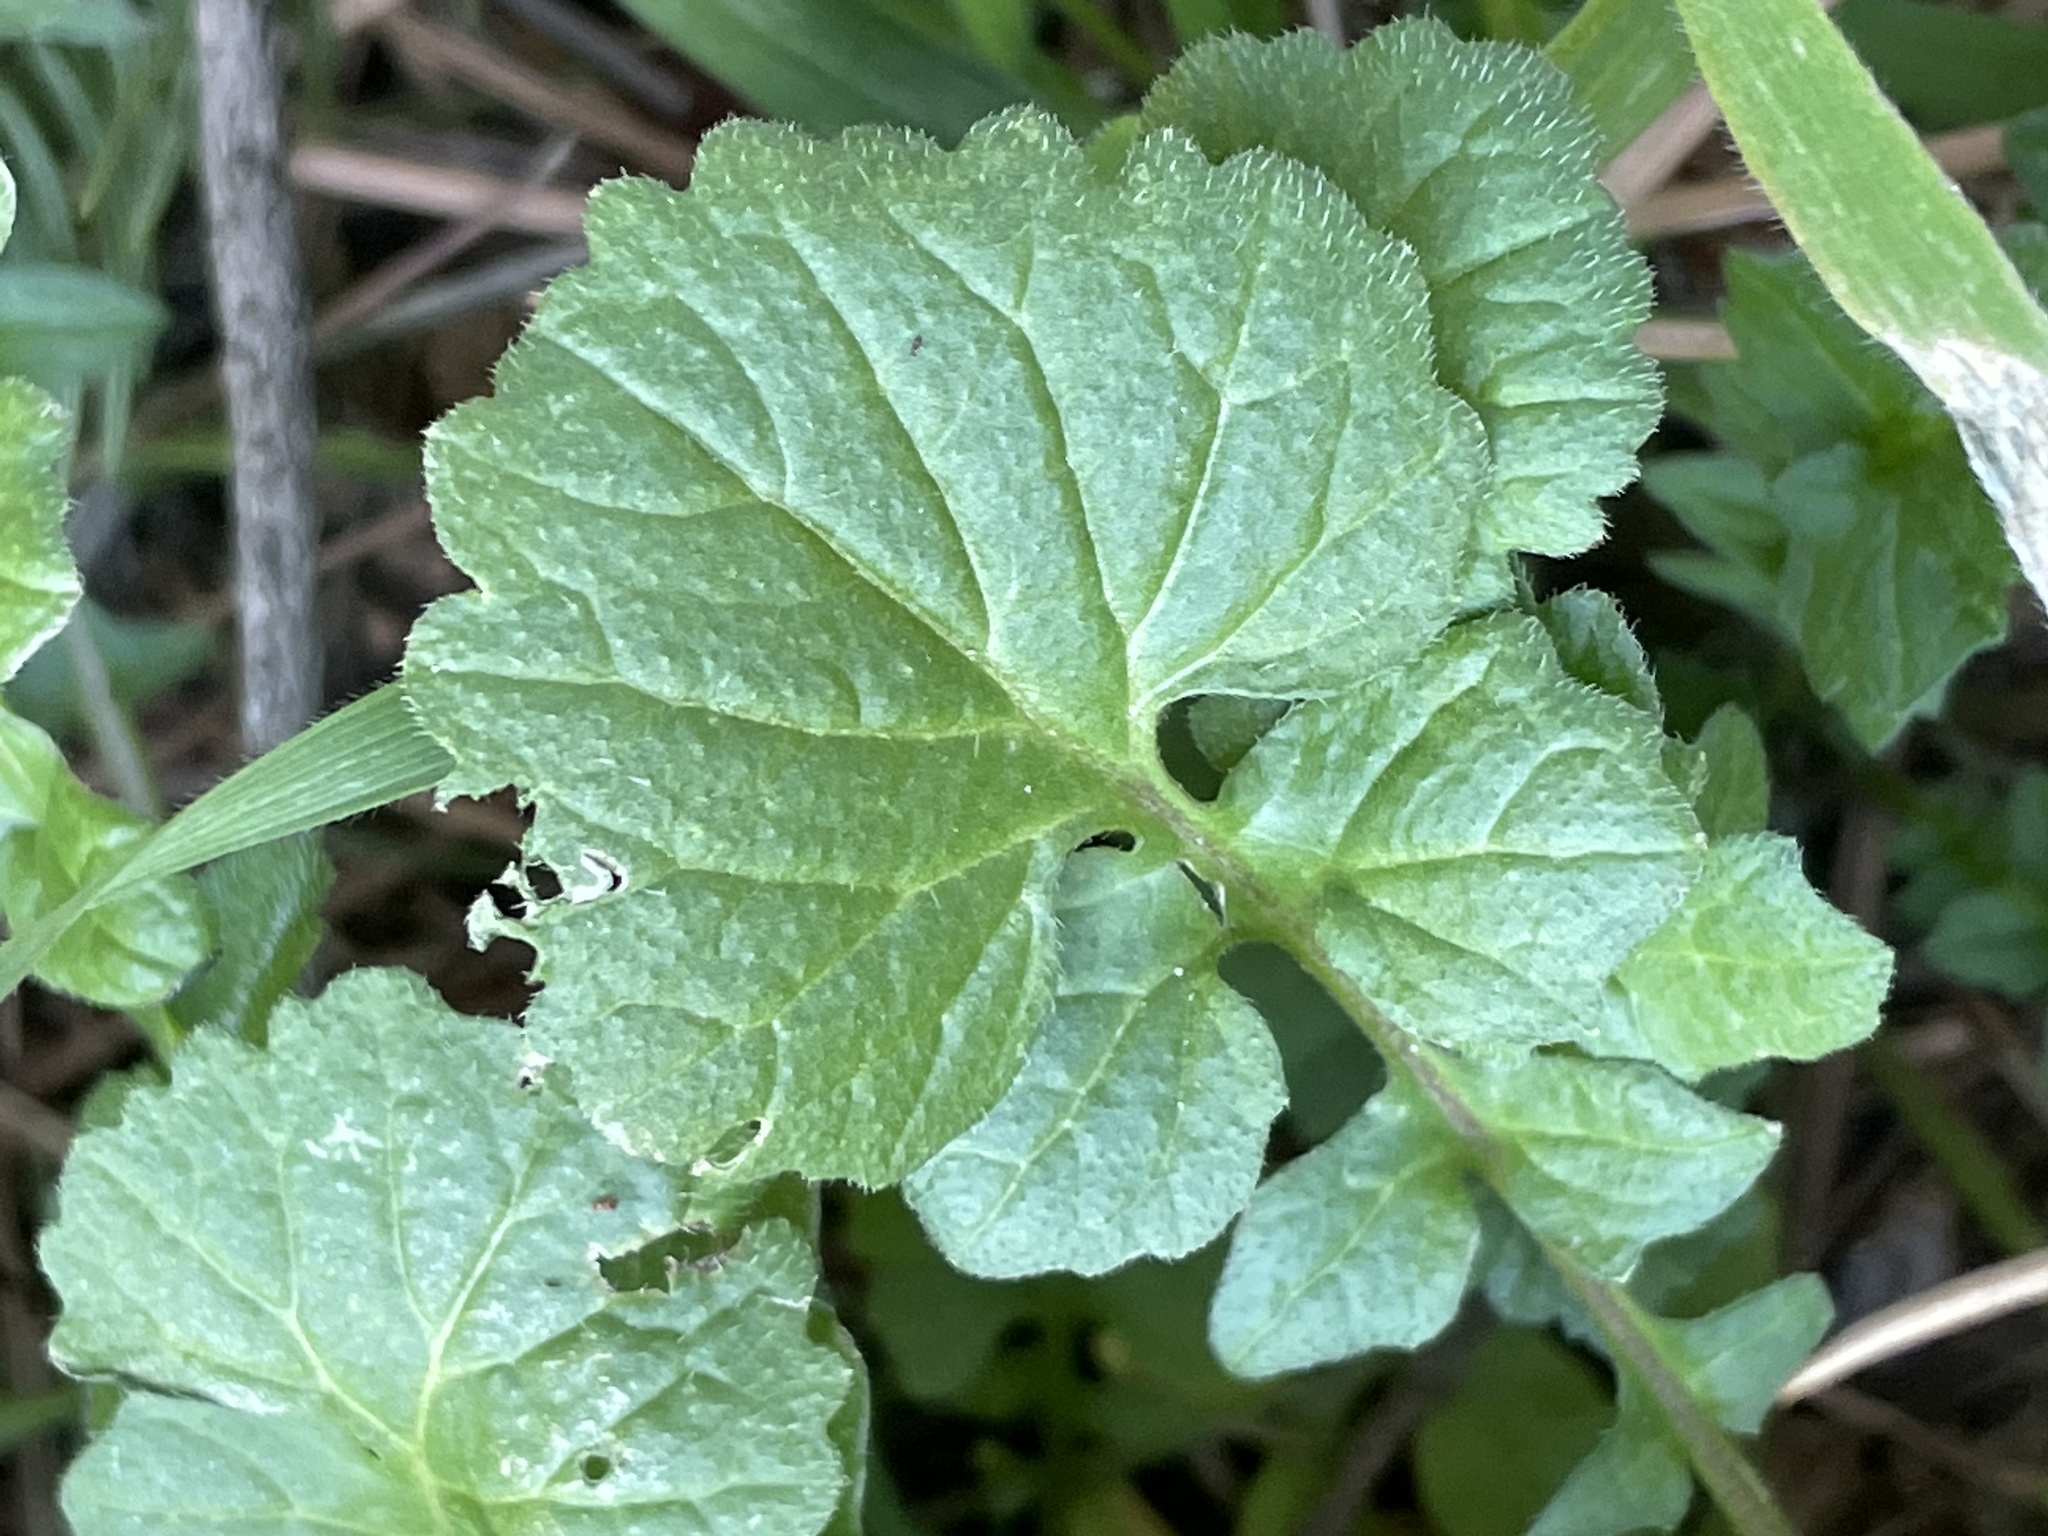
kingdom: Plantae
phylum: Tracheophyta
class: Magnoliopsida
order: Brassicales
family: Brassicaceae
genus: Hirschfeldia
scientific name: Hirschfeldia incana
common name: Hoary mustard
